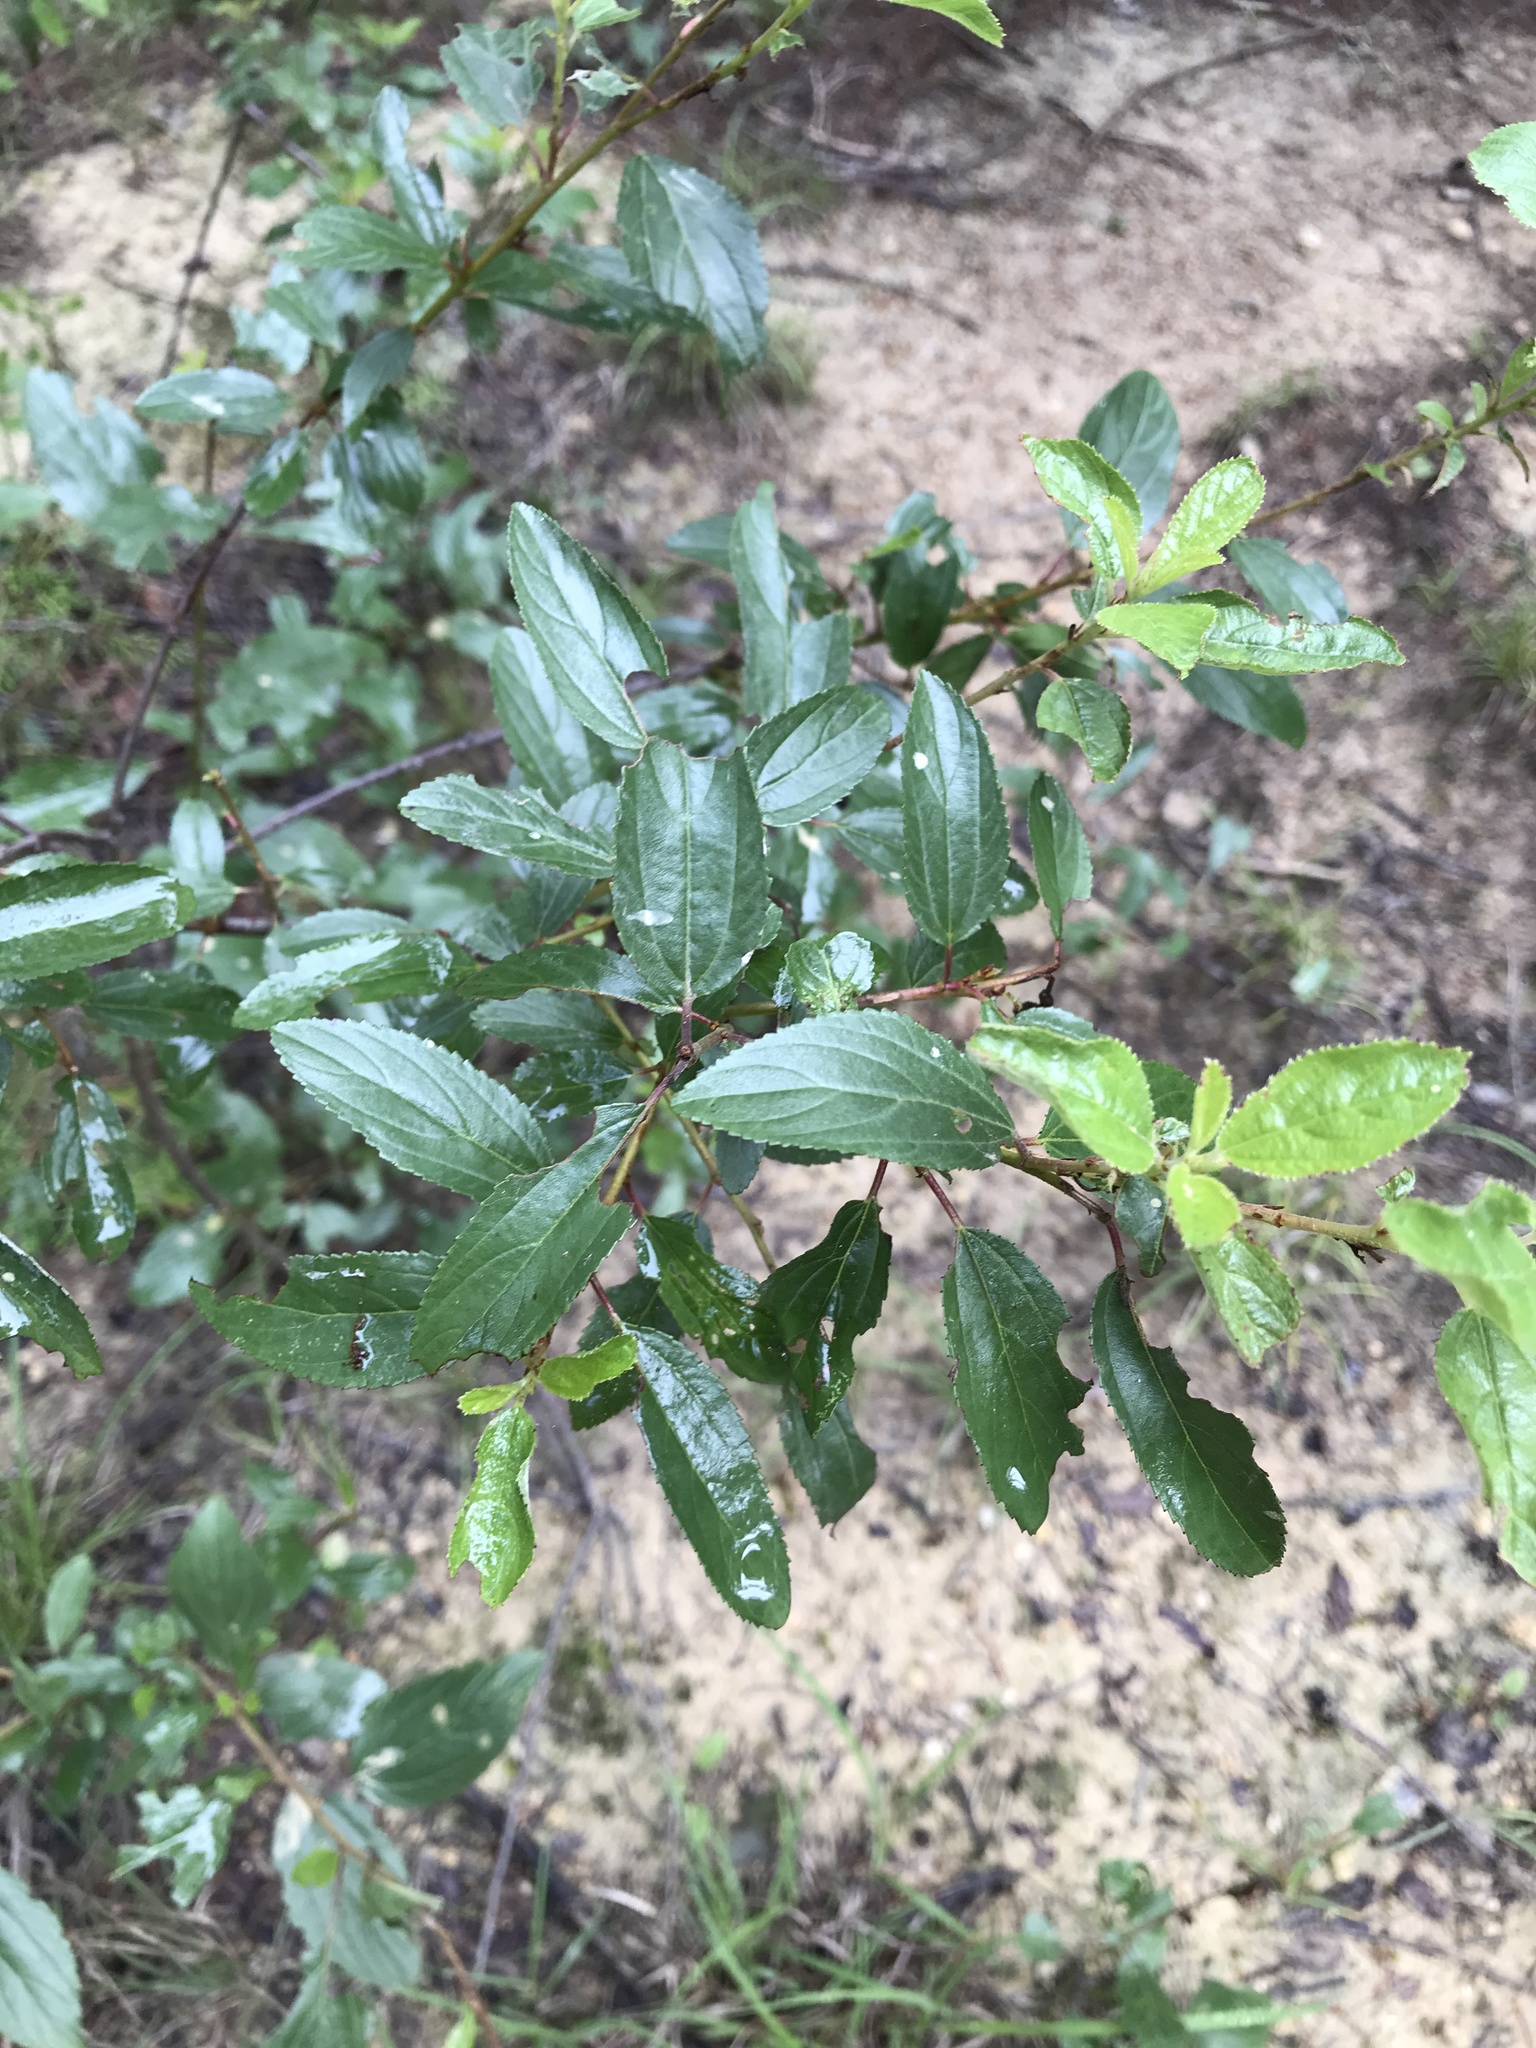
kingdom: Plantae
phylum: Tracheophyta
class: Magnoliopsida
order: Rosales
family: Rhamnaceae
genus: Ceanothus
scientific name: Ceanothus herbaceus
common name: Inland ceanothus
